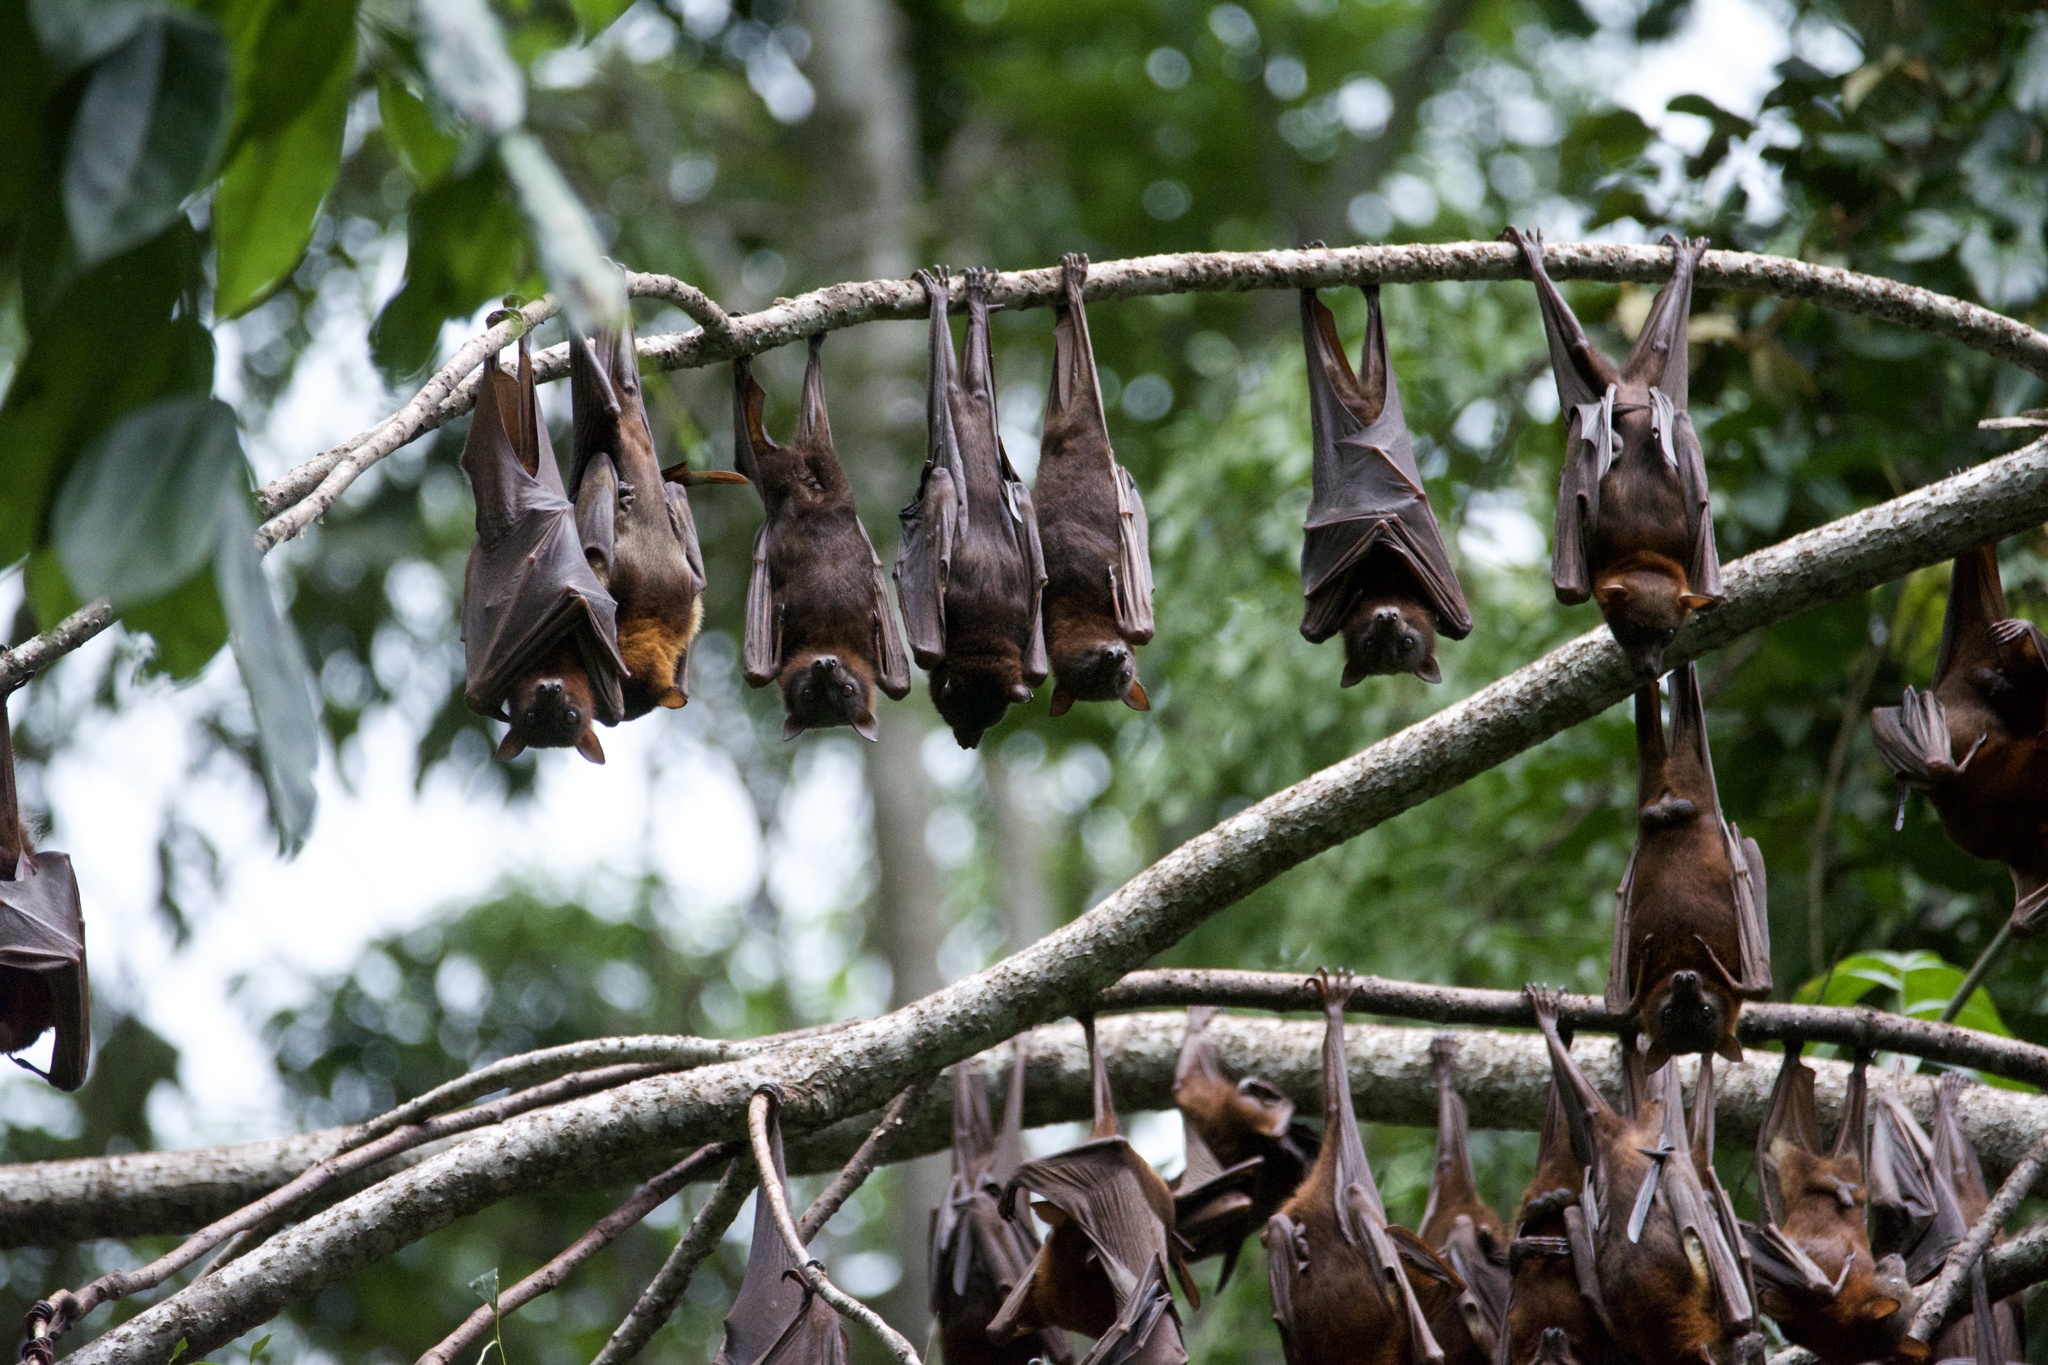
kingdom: Animalia
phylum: Chordata
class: Mammalia
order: Chiroptera
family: Pteropodidae
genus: Pteropus
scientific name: Pteropus scapulatus
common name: Little red flying fox
